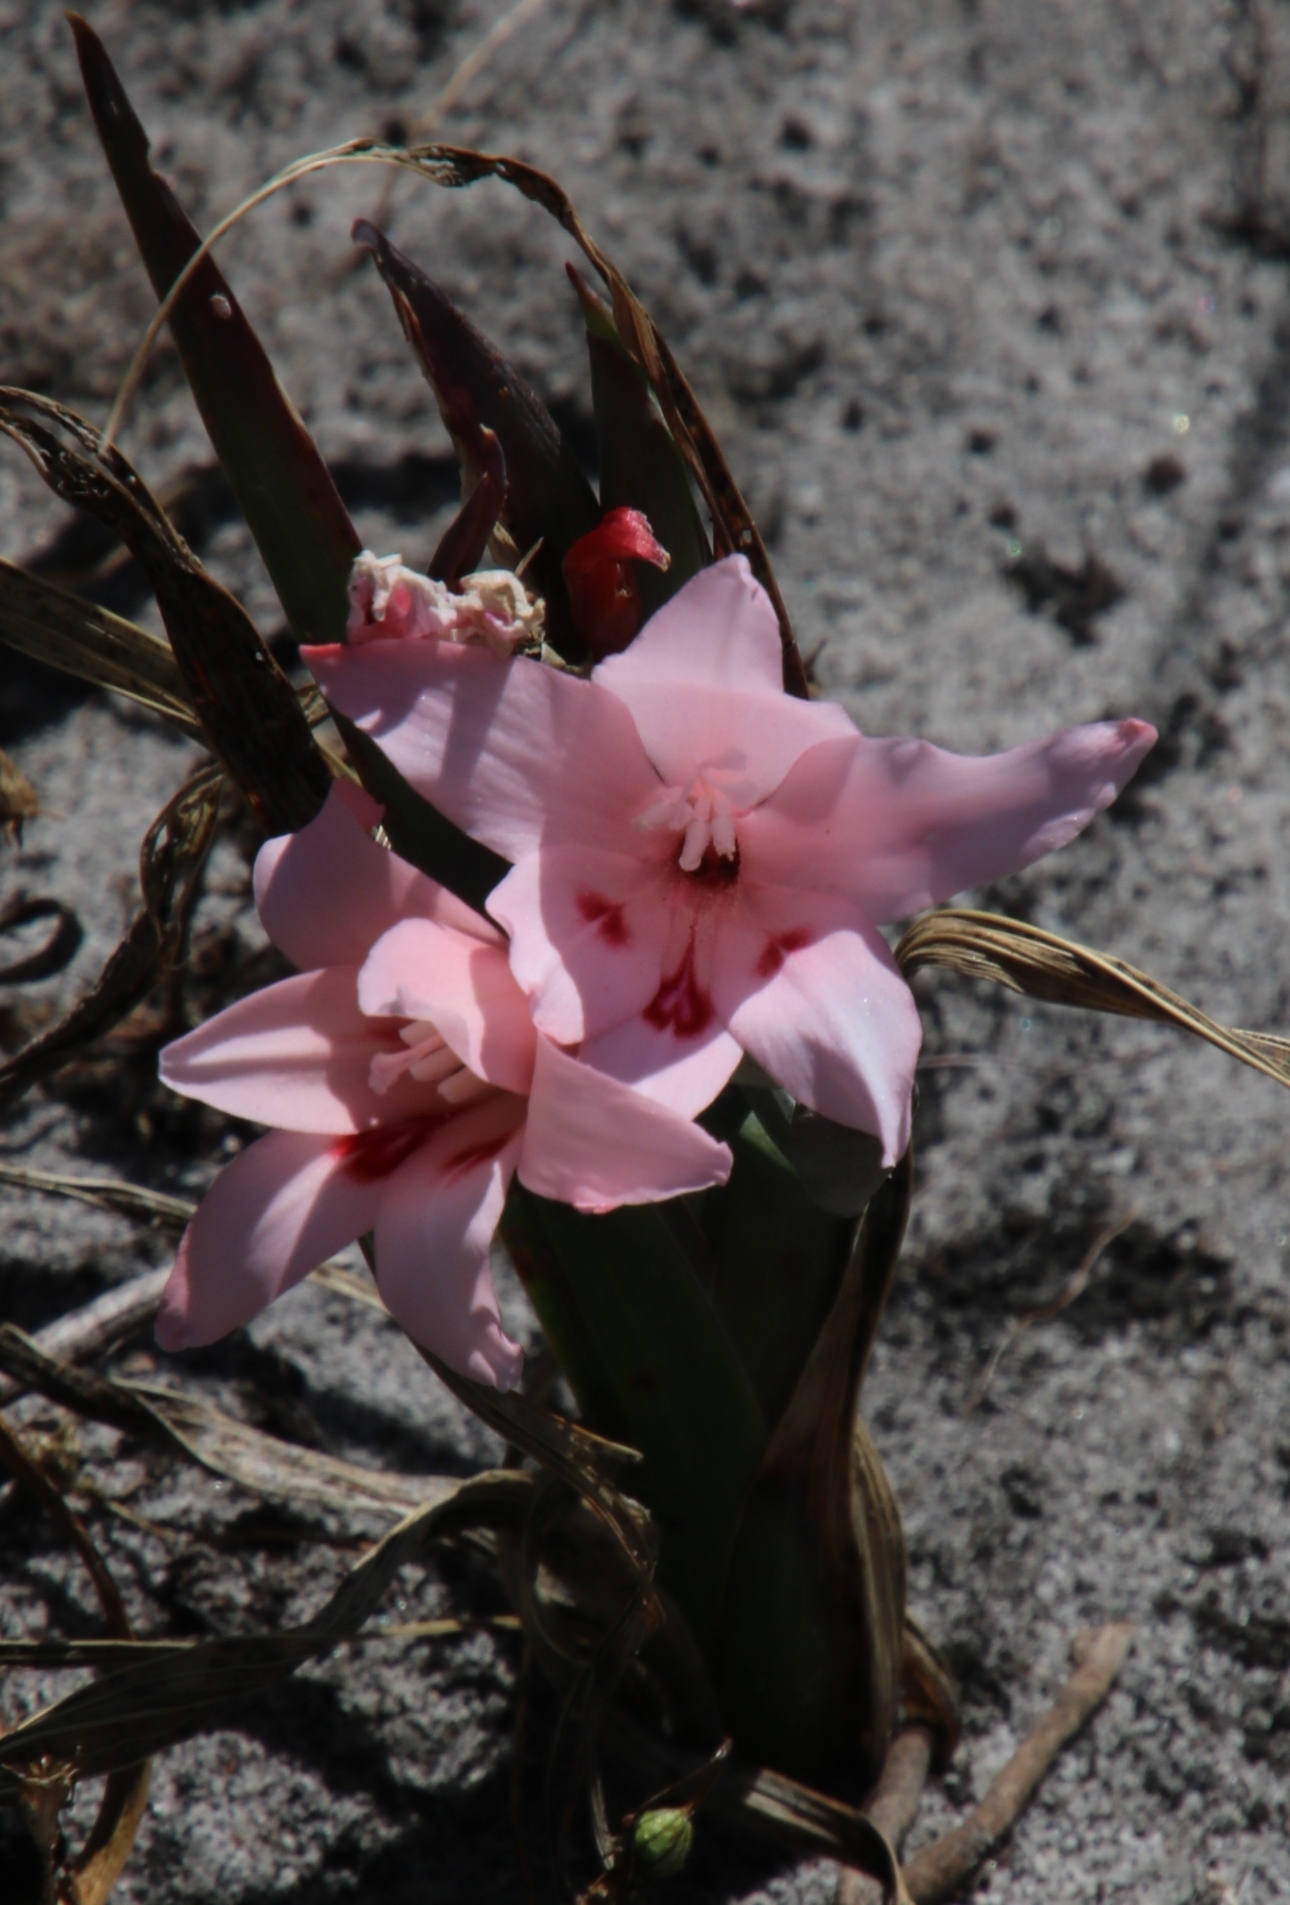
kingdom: Plantae
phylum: Tracheophyta
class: Liliopsida
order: Asparagales
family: Iridaceae
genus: Gladiolus
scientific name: Gladiolus carneus
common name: Painted-lady
